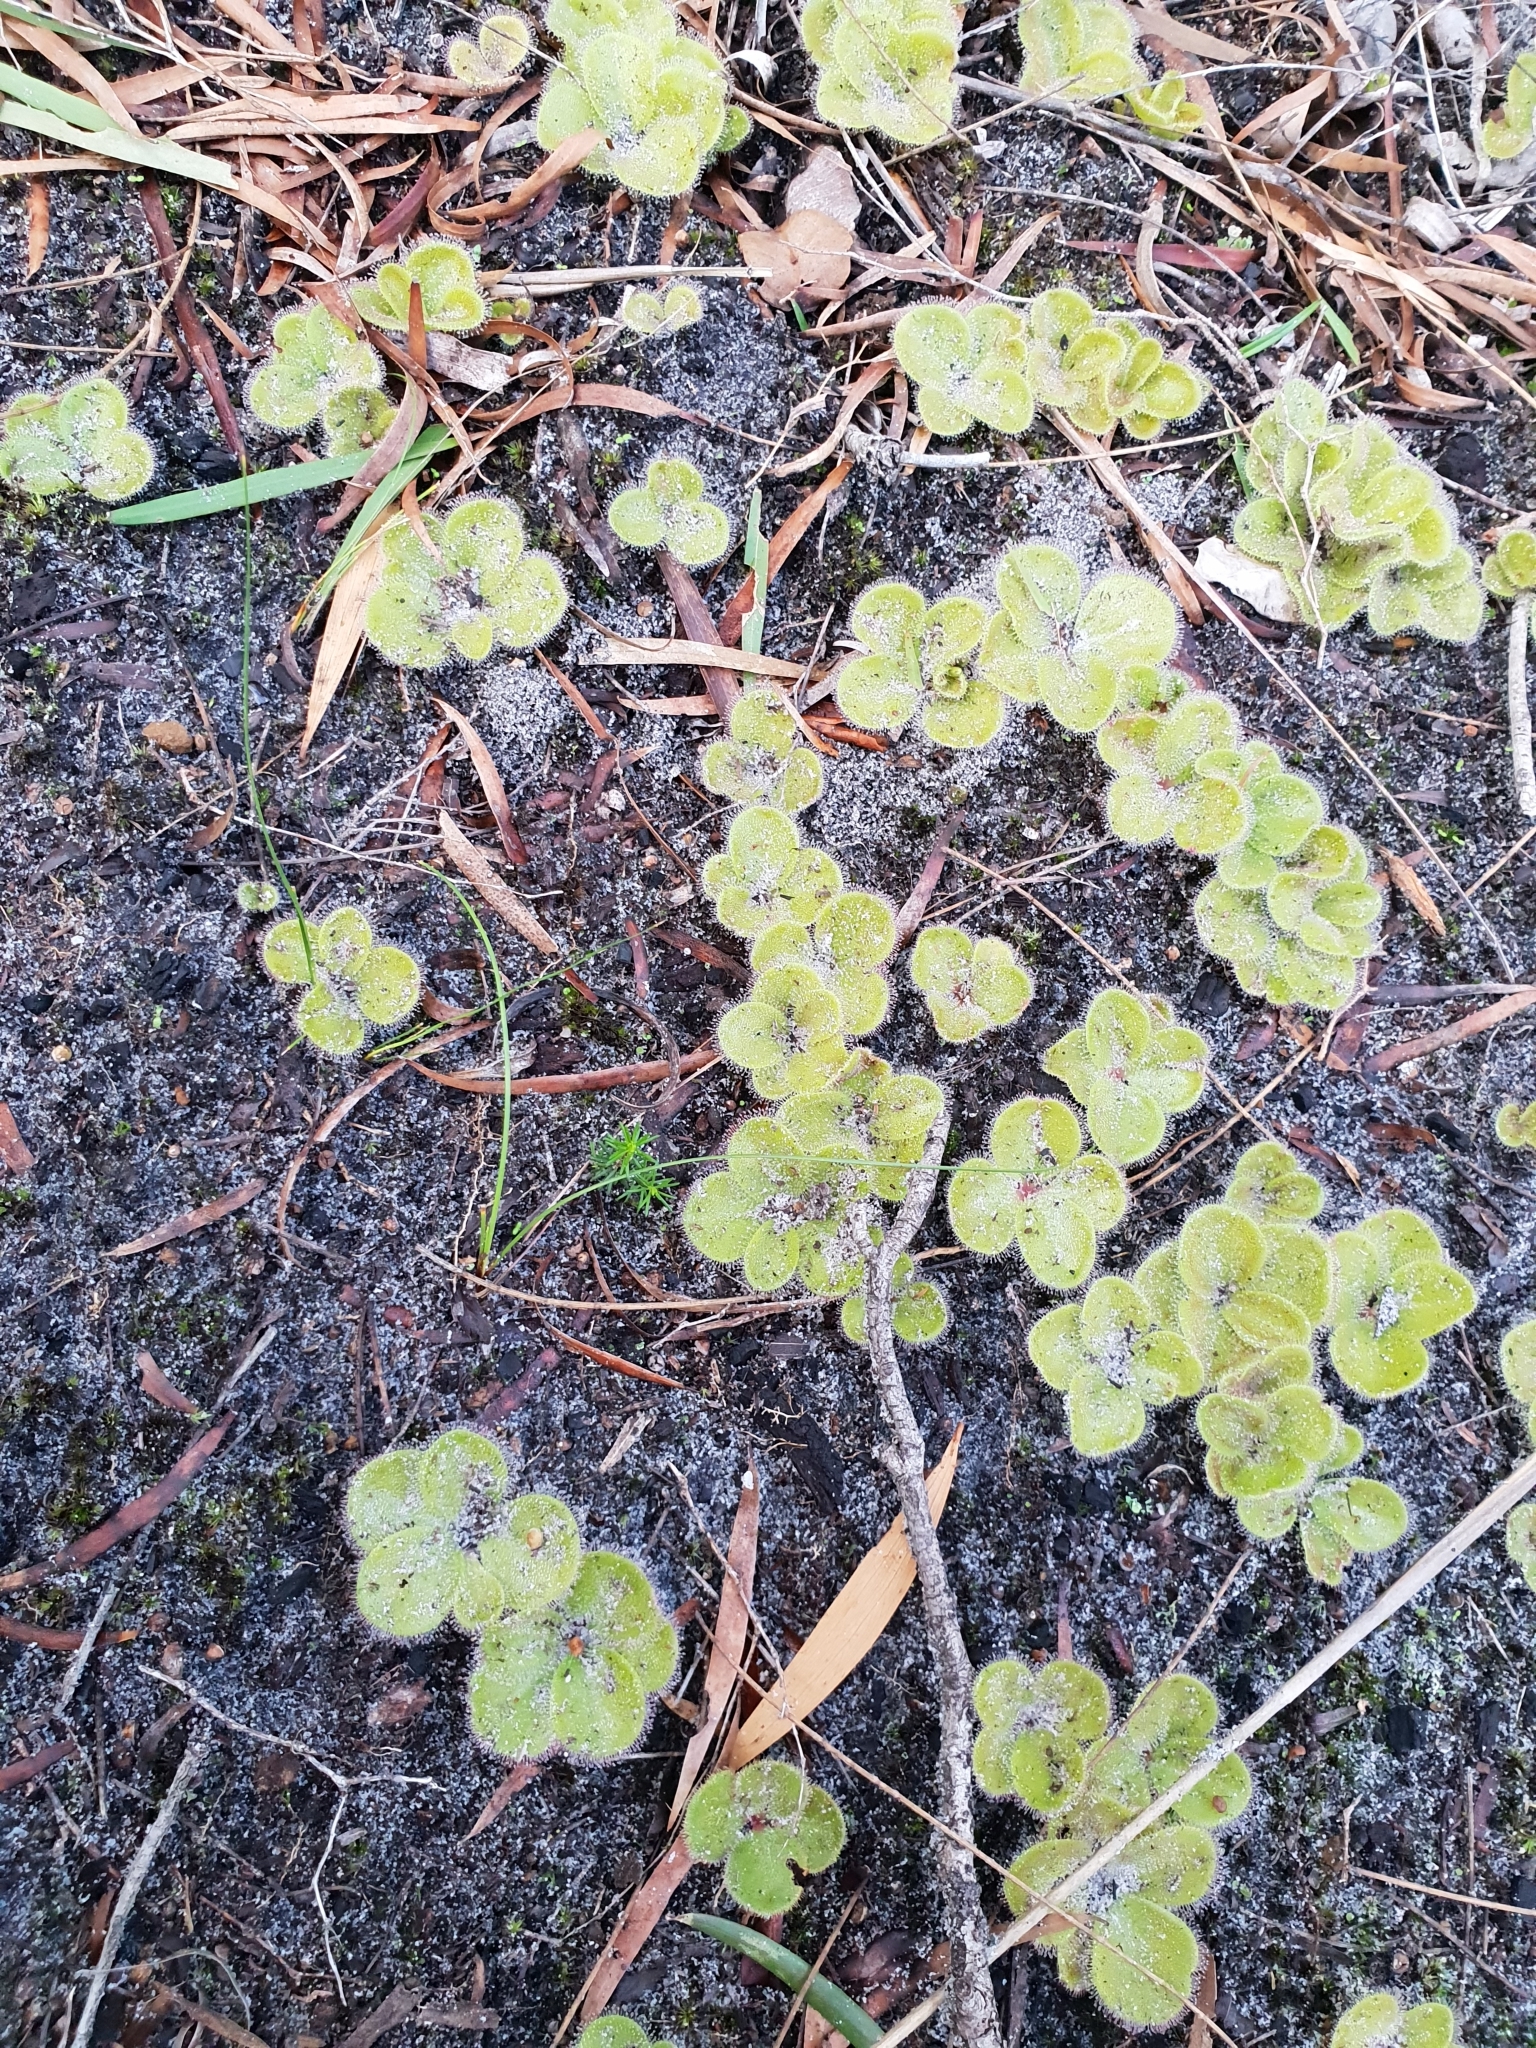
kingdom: Plantae
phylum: Tracheophyta
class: Magnoliopsida
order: Caryophyllales
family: Droseraceae
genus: Drosera
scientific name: Drosera erythrorhiza
